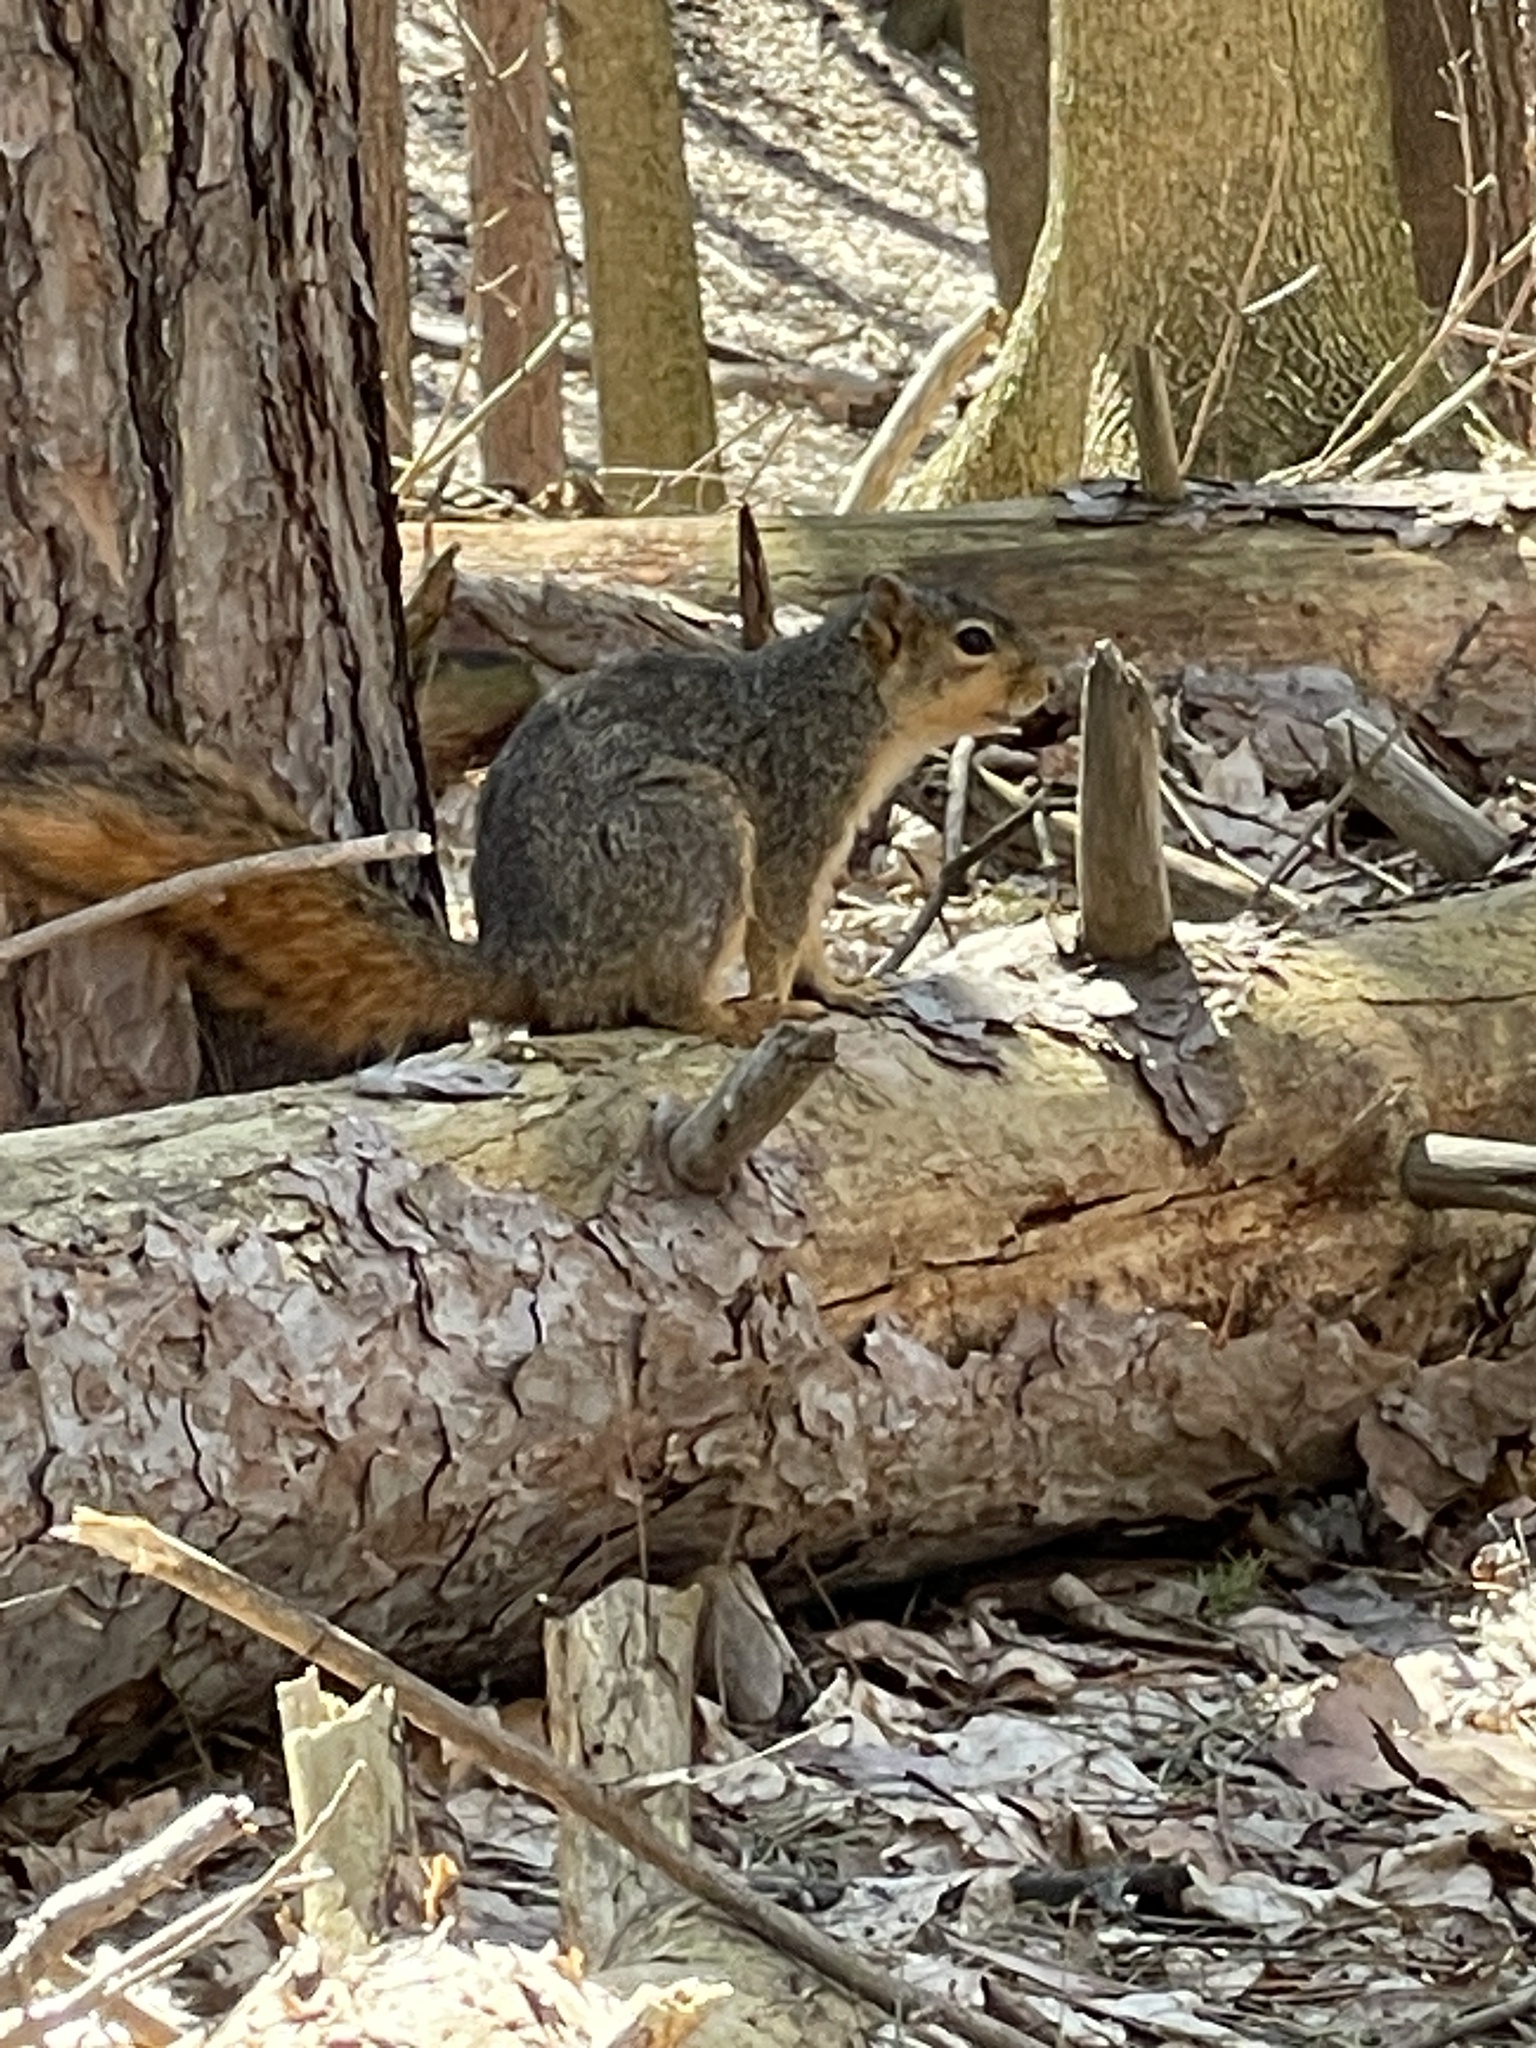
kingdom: Animalia
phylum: Chordata
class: Mammalia
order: Rodentia
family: Sciuridae
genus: Sciurus
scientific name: Sciurus niger
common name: Fox squirrel
